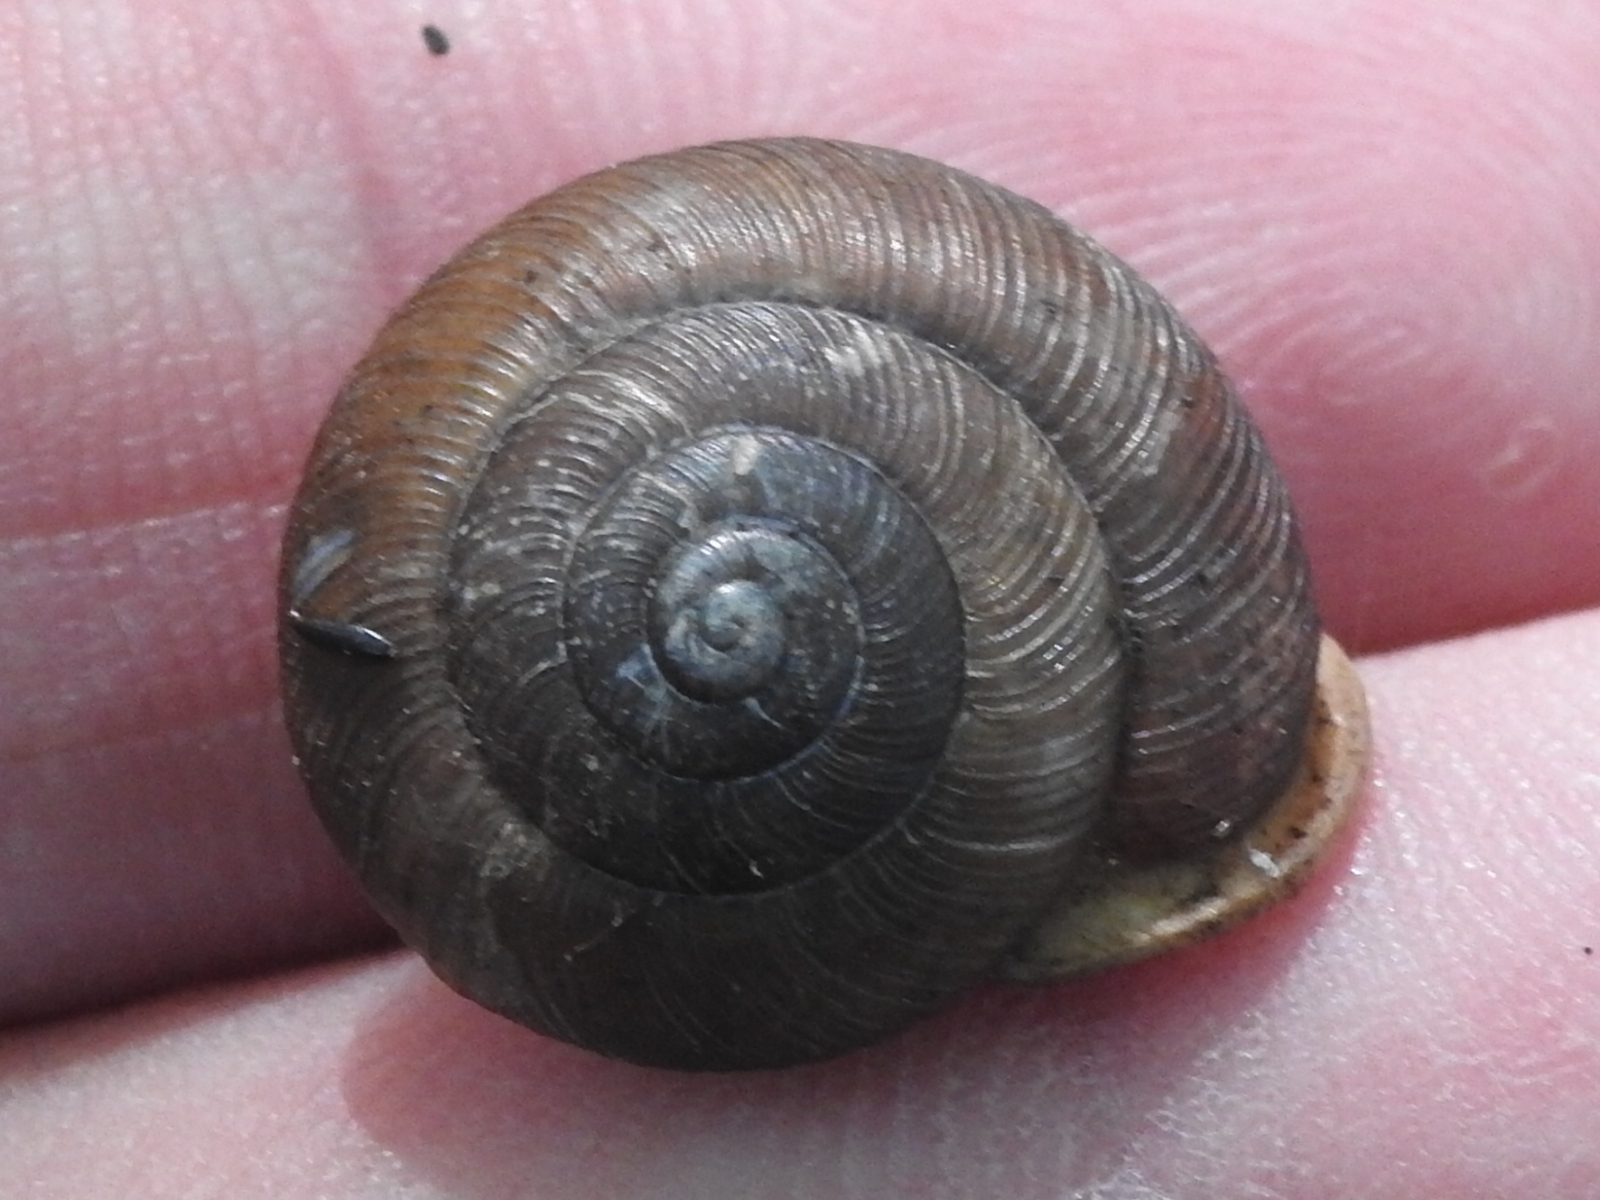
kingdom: Animalia
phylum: Mollusca
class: Gastropoda
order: Stylommatophora
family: Polygyridae
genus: Xolotrema
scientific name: Xolotrema fosteri
